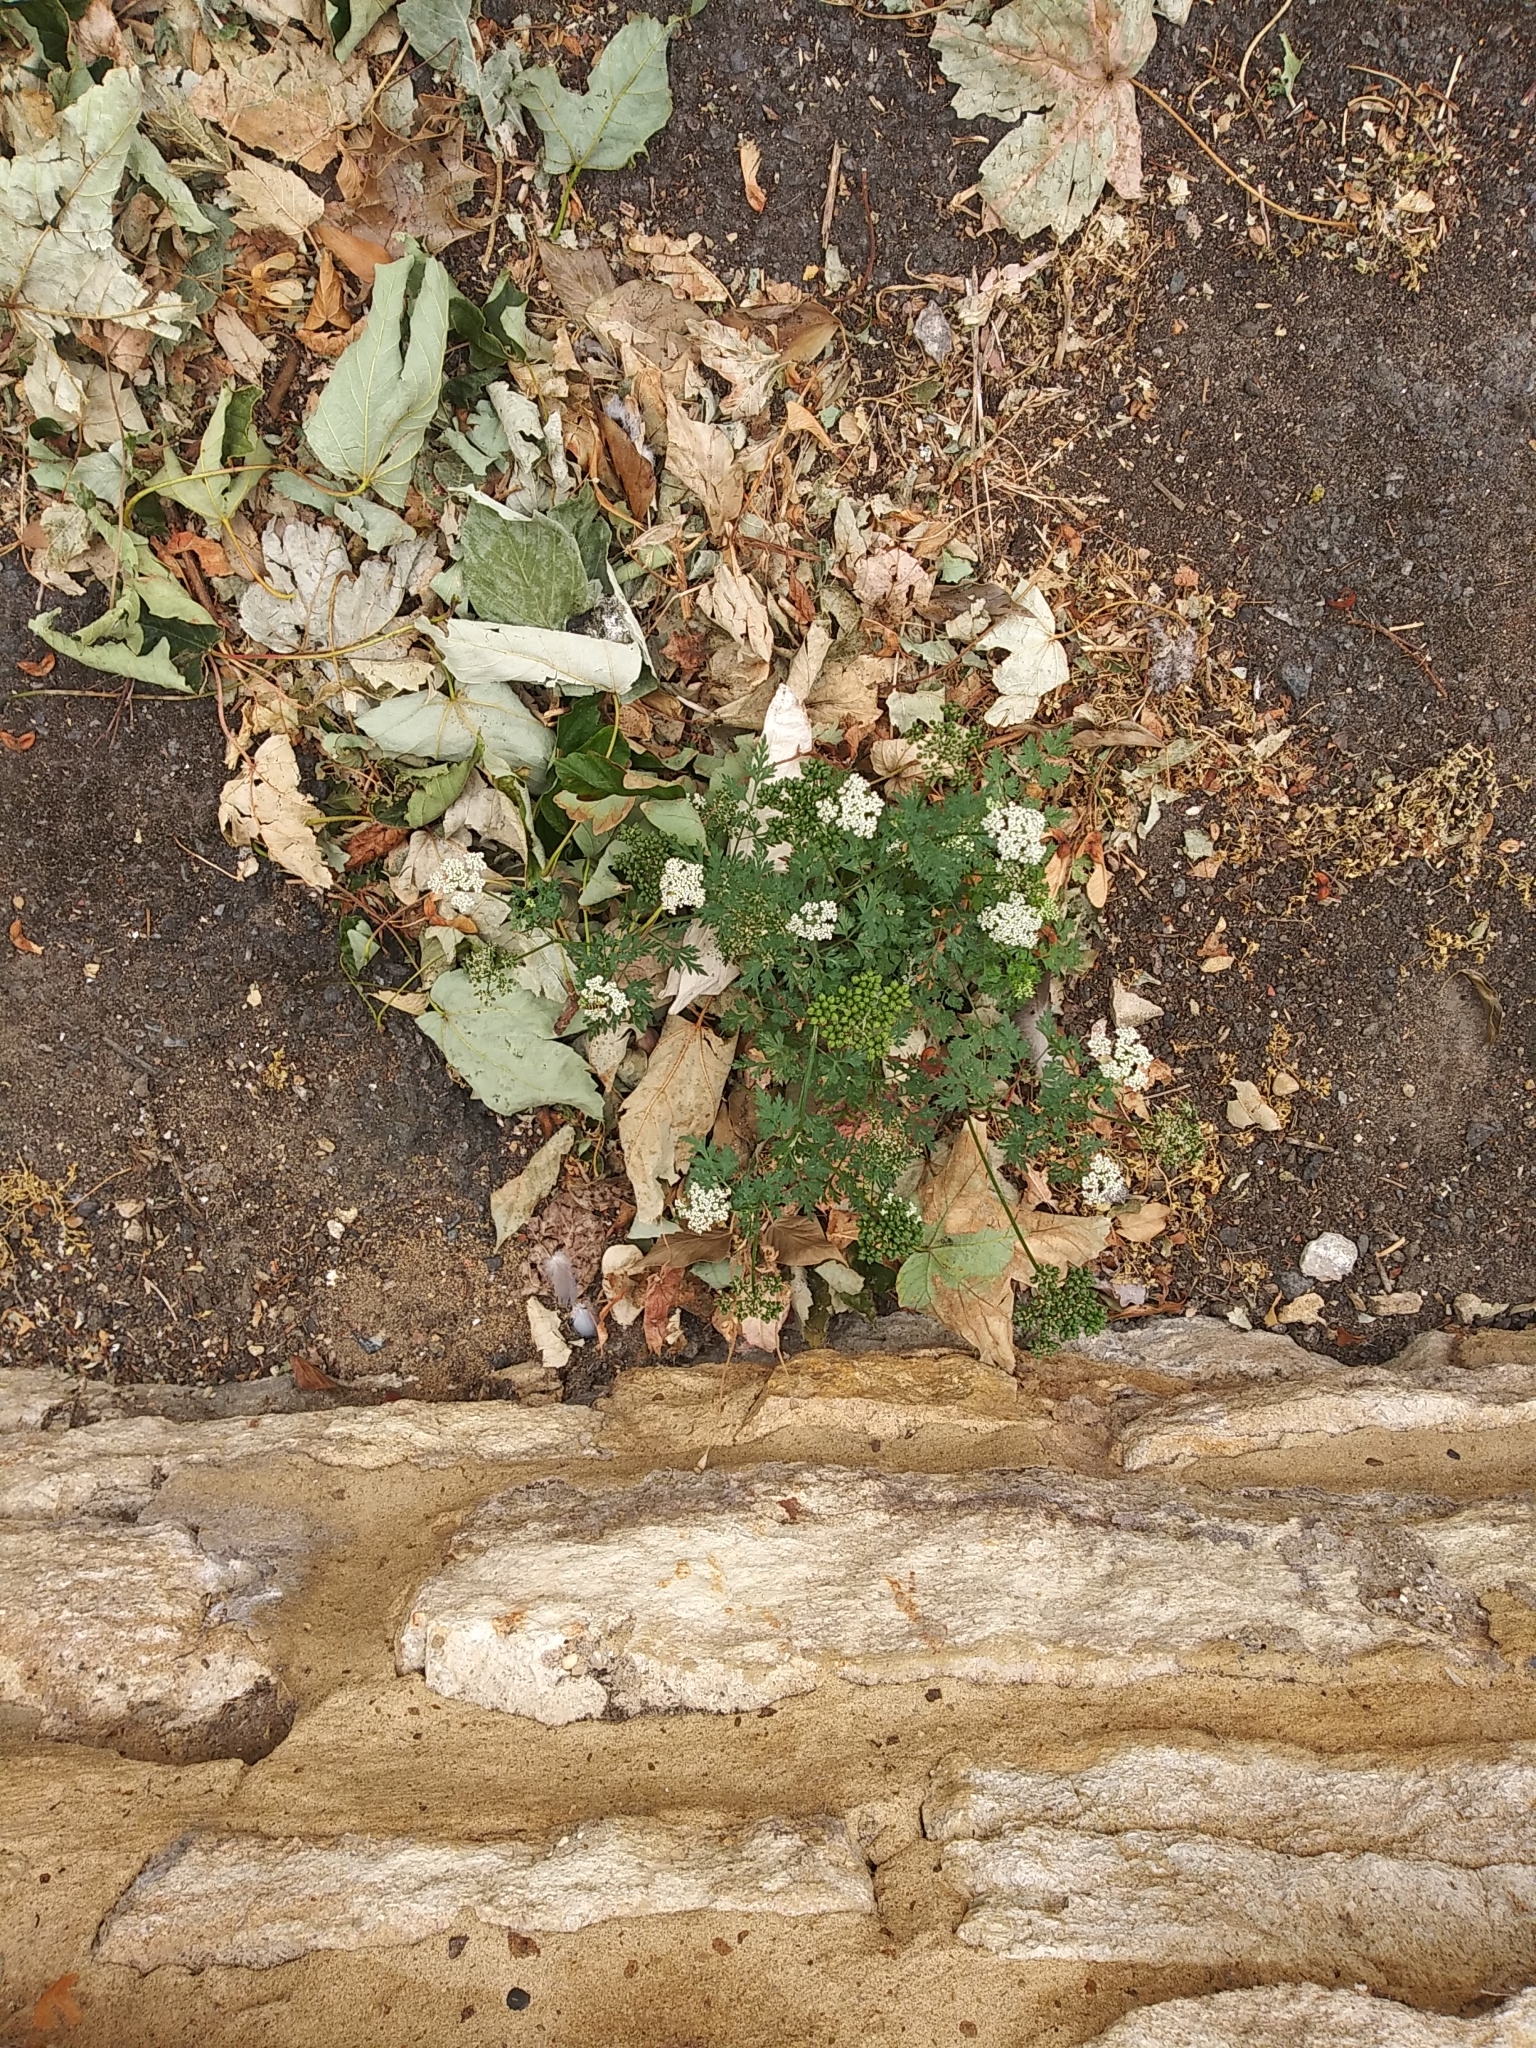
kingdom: Plantae
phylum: Tracheophyta
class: Magnoliopsida
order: Apiales
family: Apiaceae
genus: Aethusa
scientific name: Aethusa cynapium
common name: Fool's parsley
